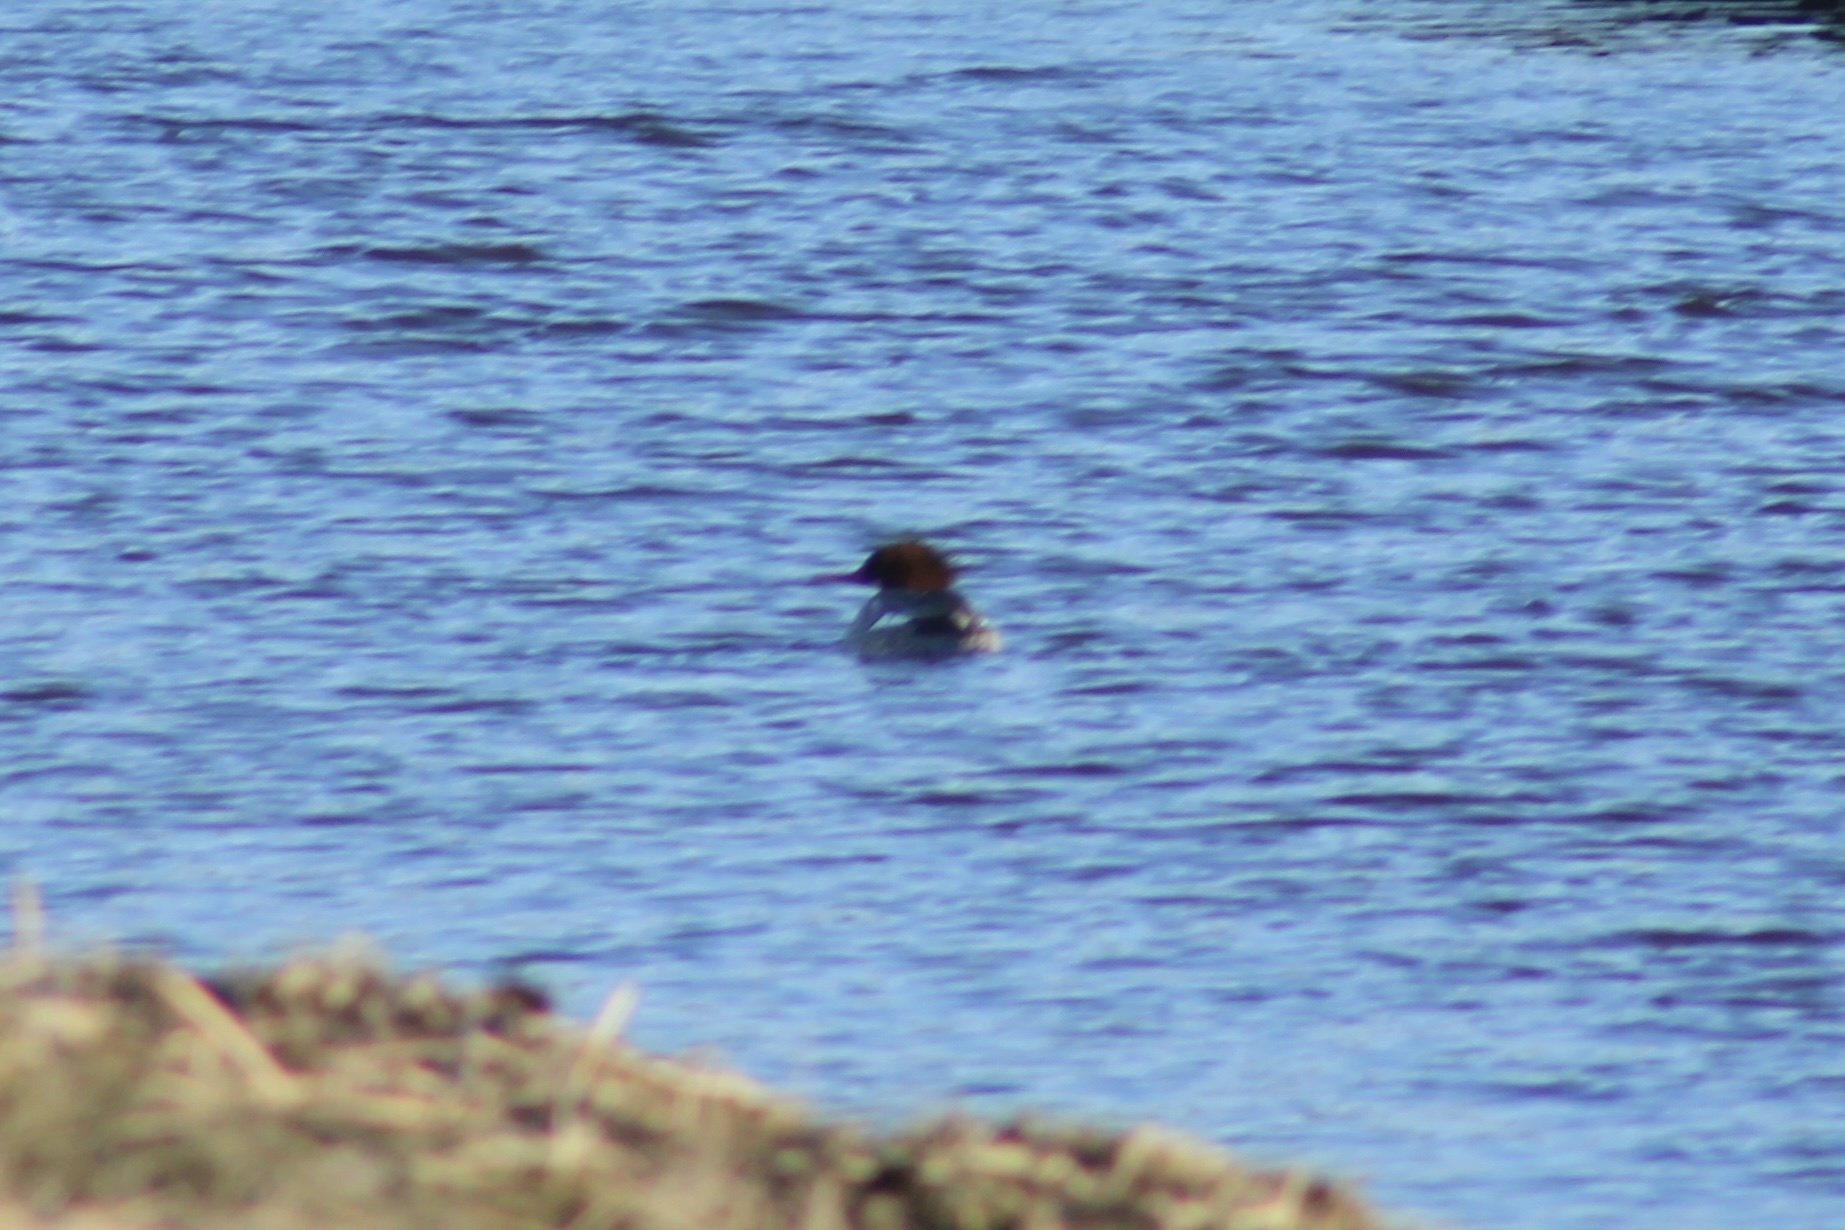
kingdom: Animalia
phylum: Chordata
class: Aves
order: Anseriformes
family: Anatidae
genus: Mergus
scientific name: Mergus merganser
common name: Common merganser
